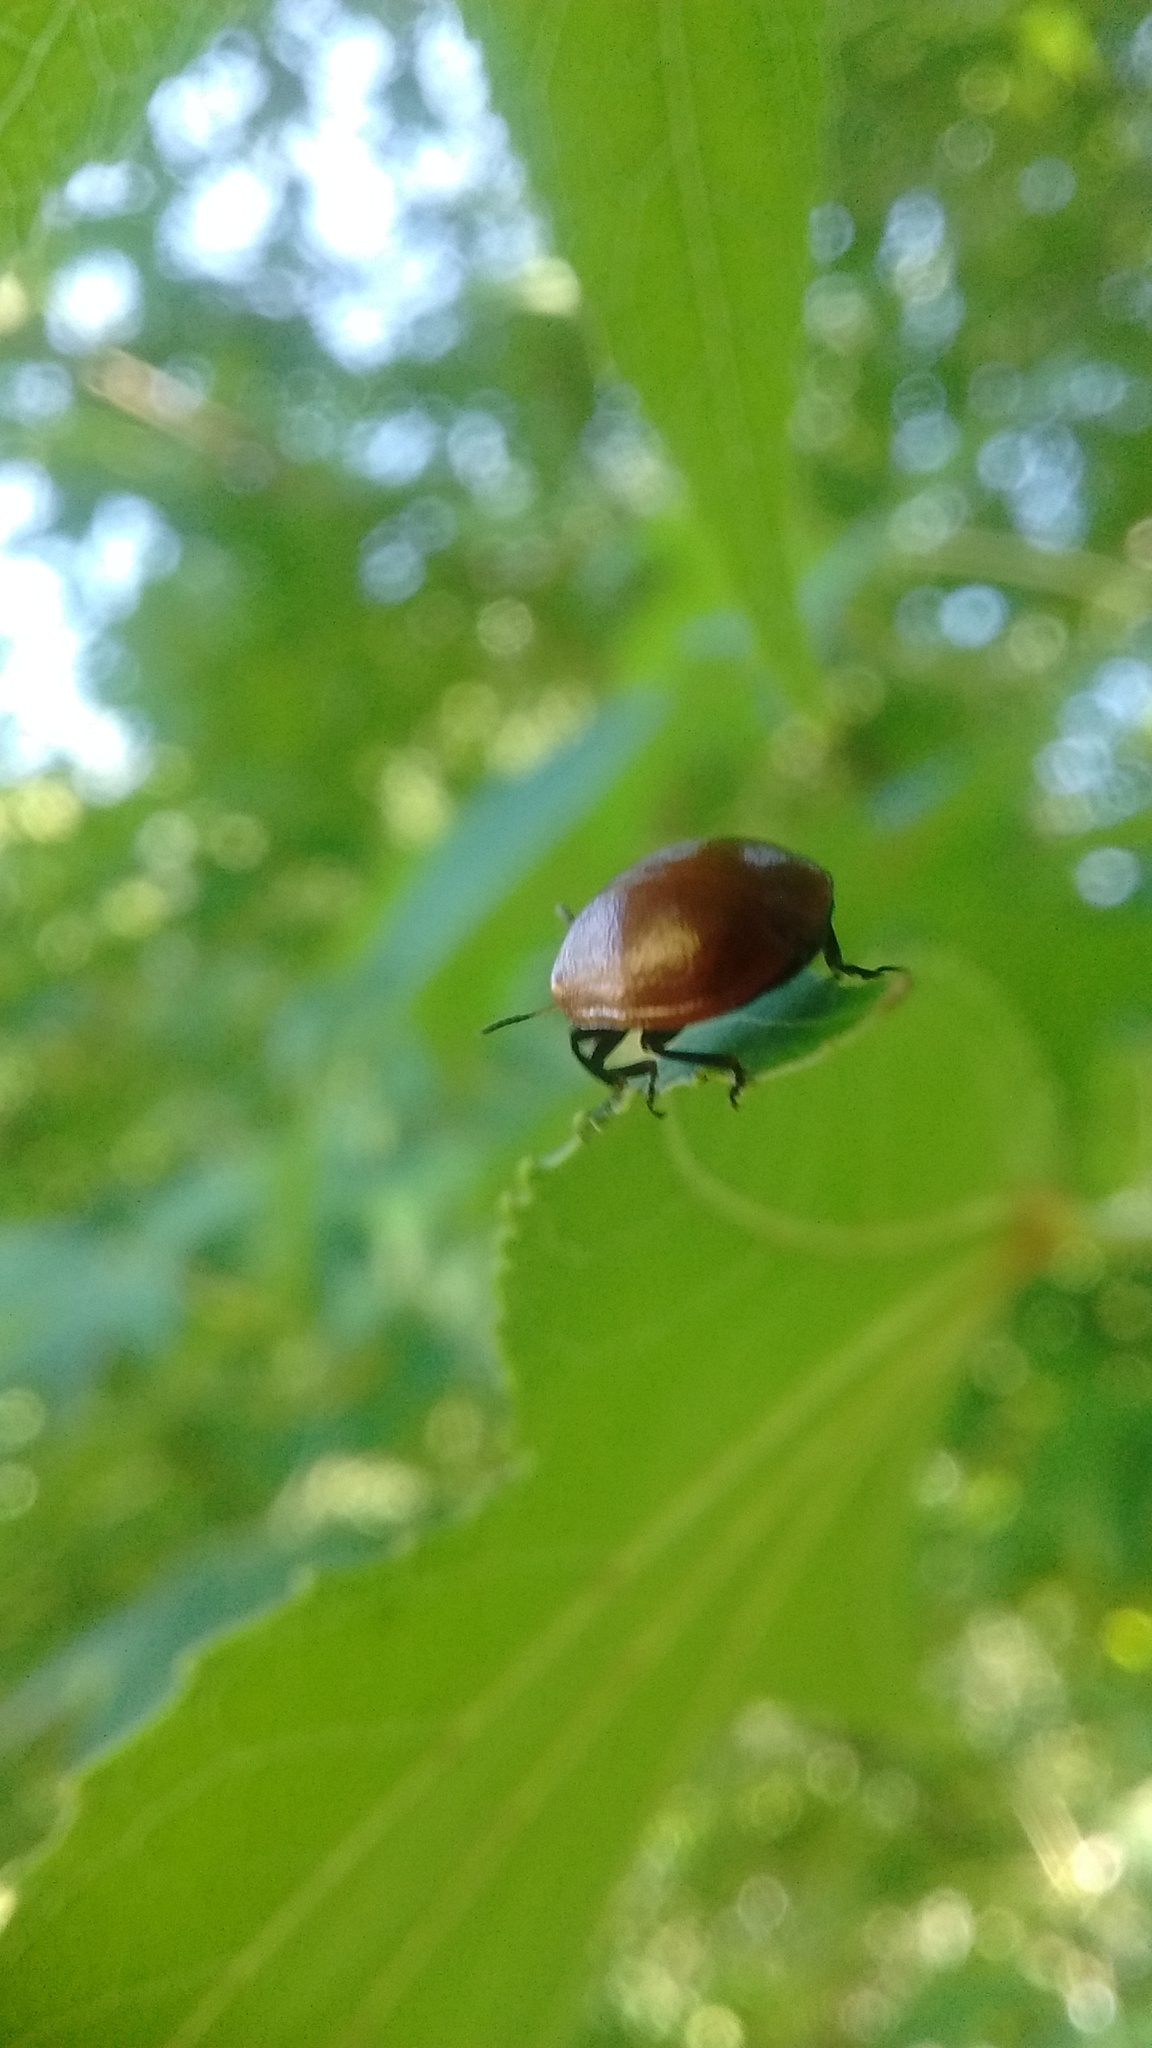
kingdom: Animalia
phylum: Arthropoda
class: Insecta
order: Coleoptera
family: Chrysomelidae
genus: Plagiodera
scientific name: Plagiodera
